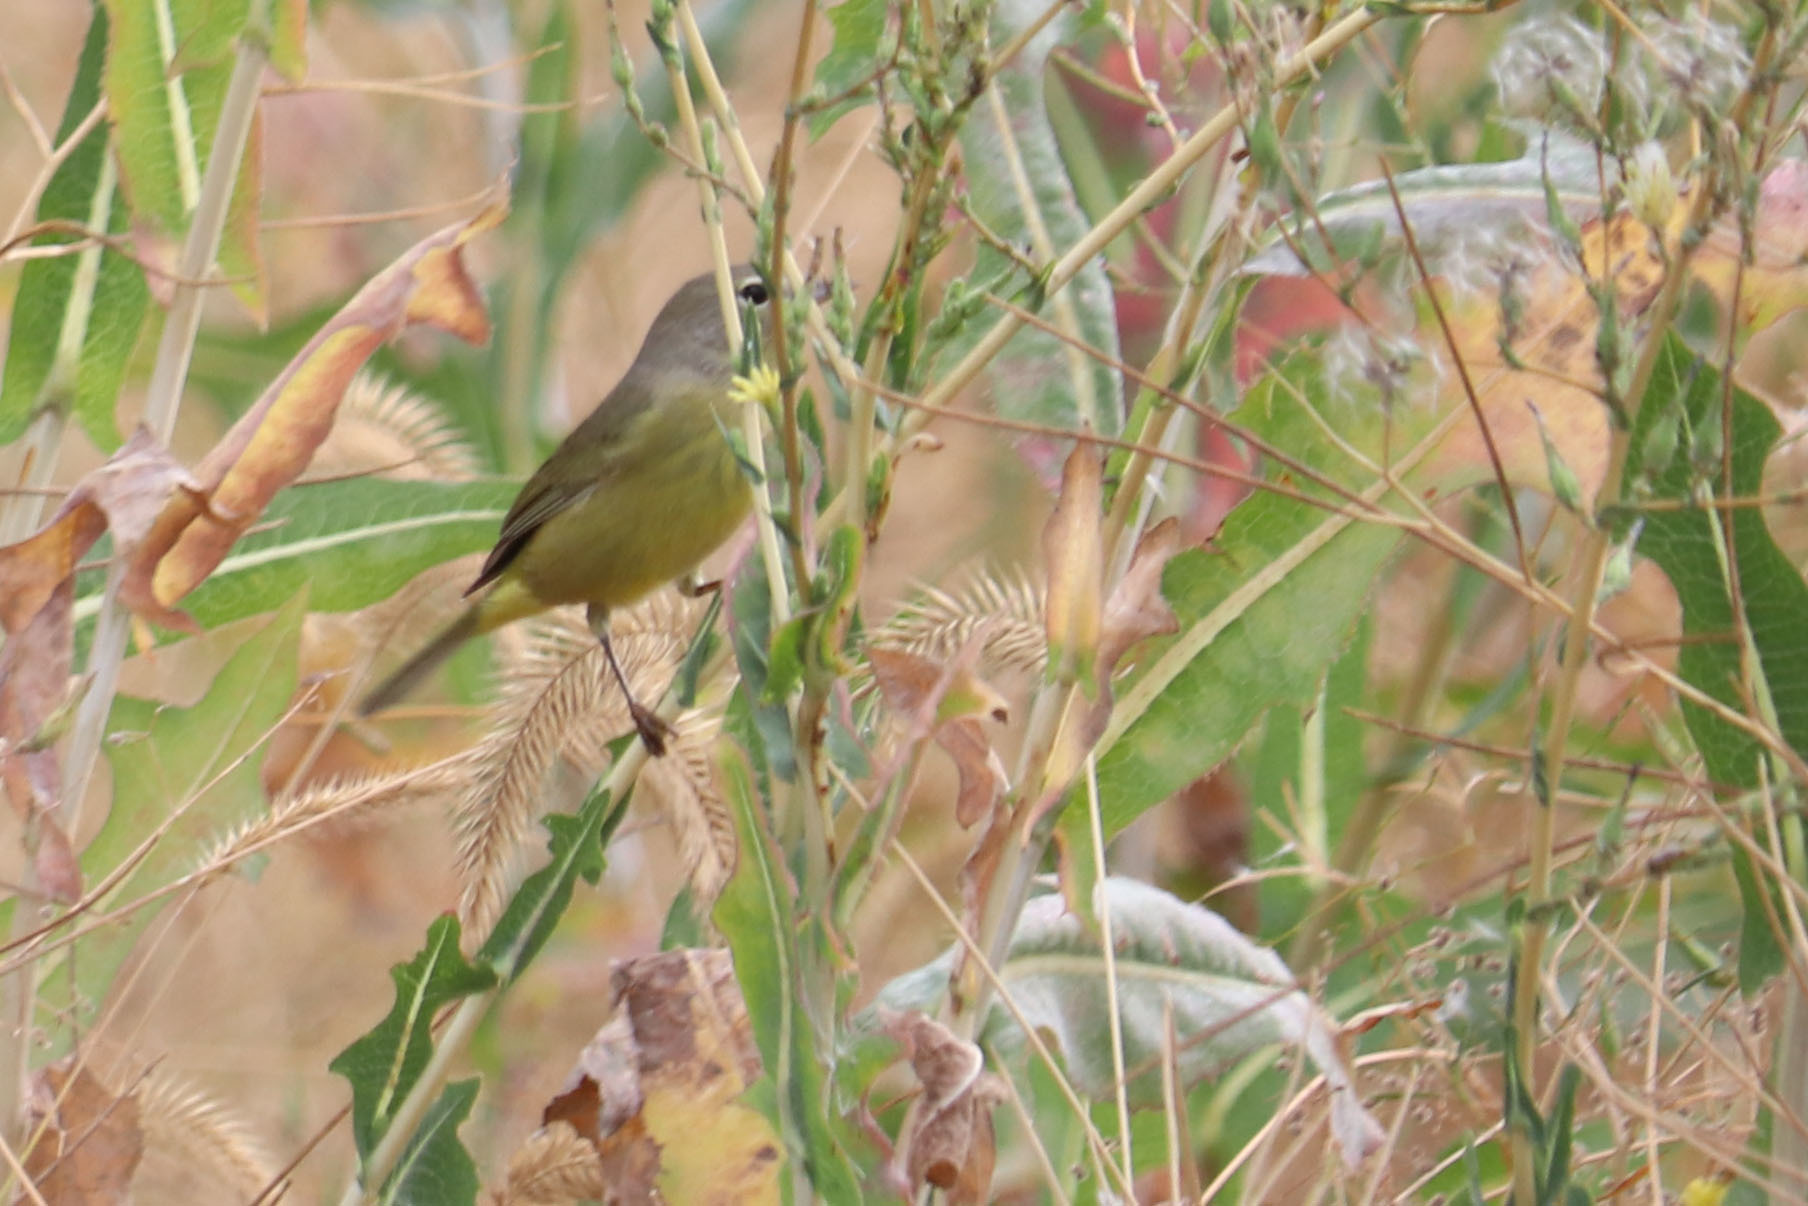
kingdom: Animalia
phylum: Chordata
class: Aves
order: Passeriformes
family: Parulidae
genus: Leiothlypis
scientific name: Leiothlypis celata
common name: Orange-crowned warbler
